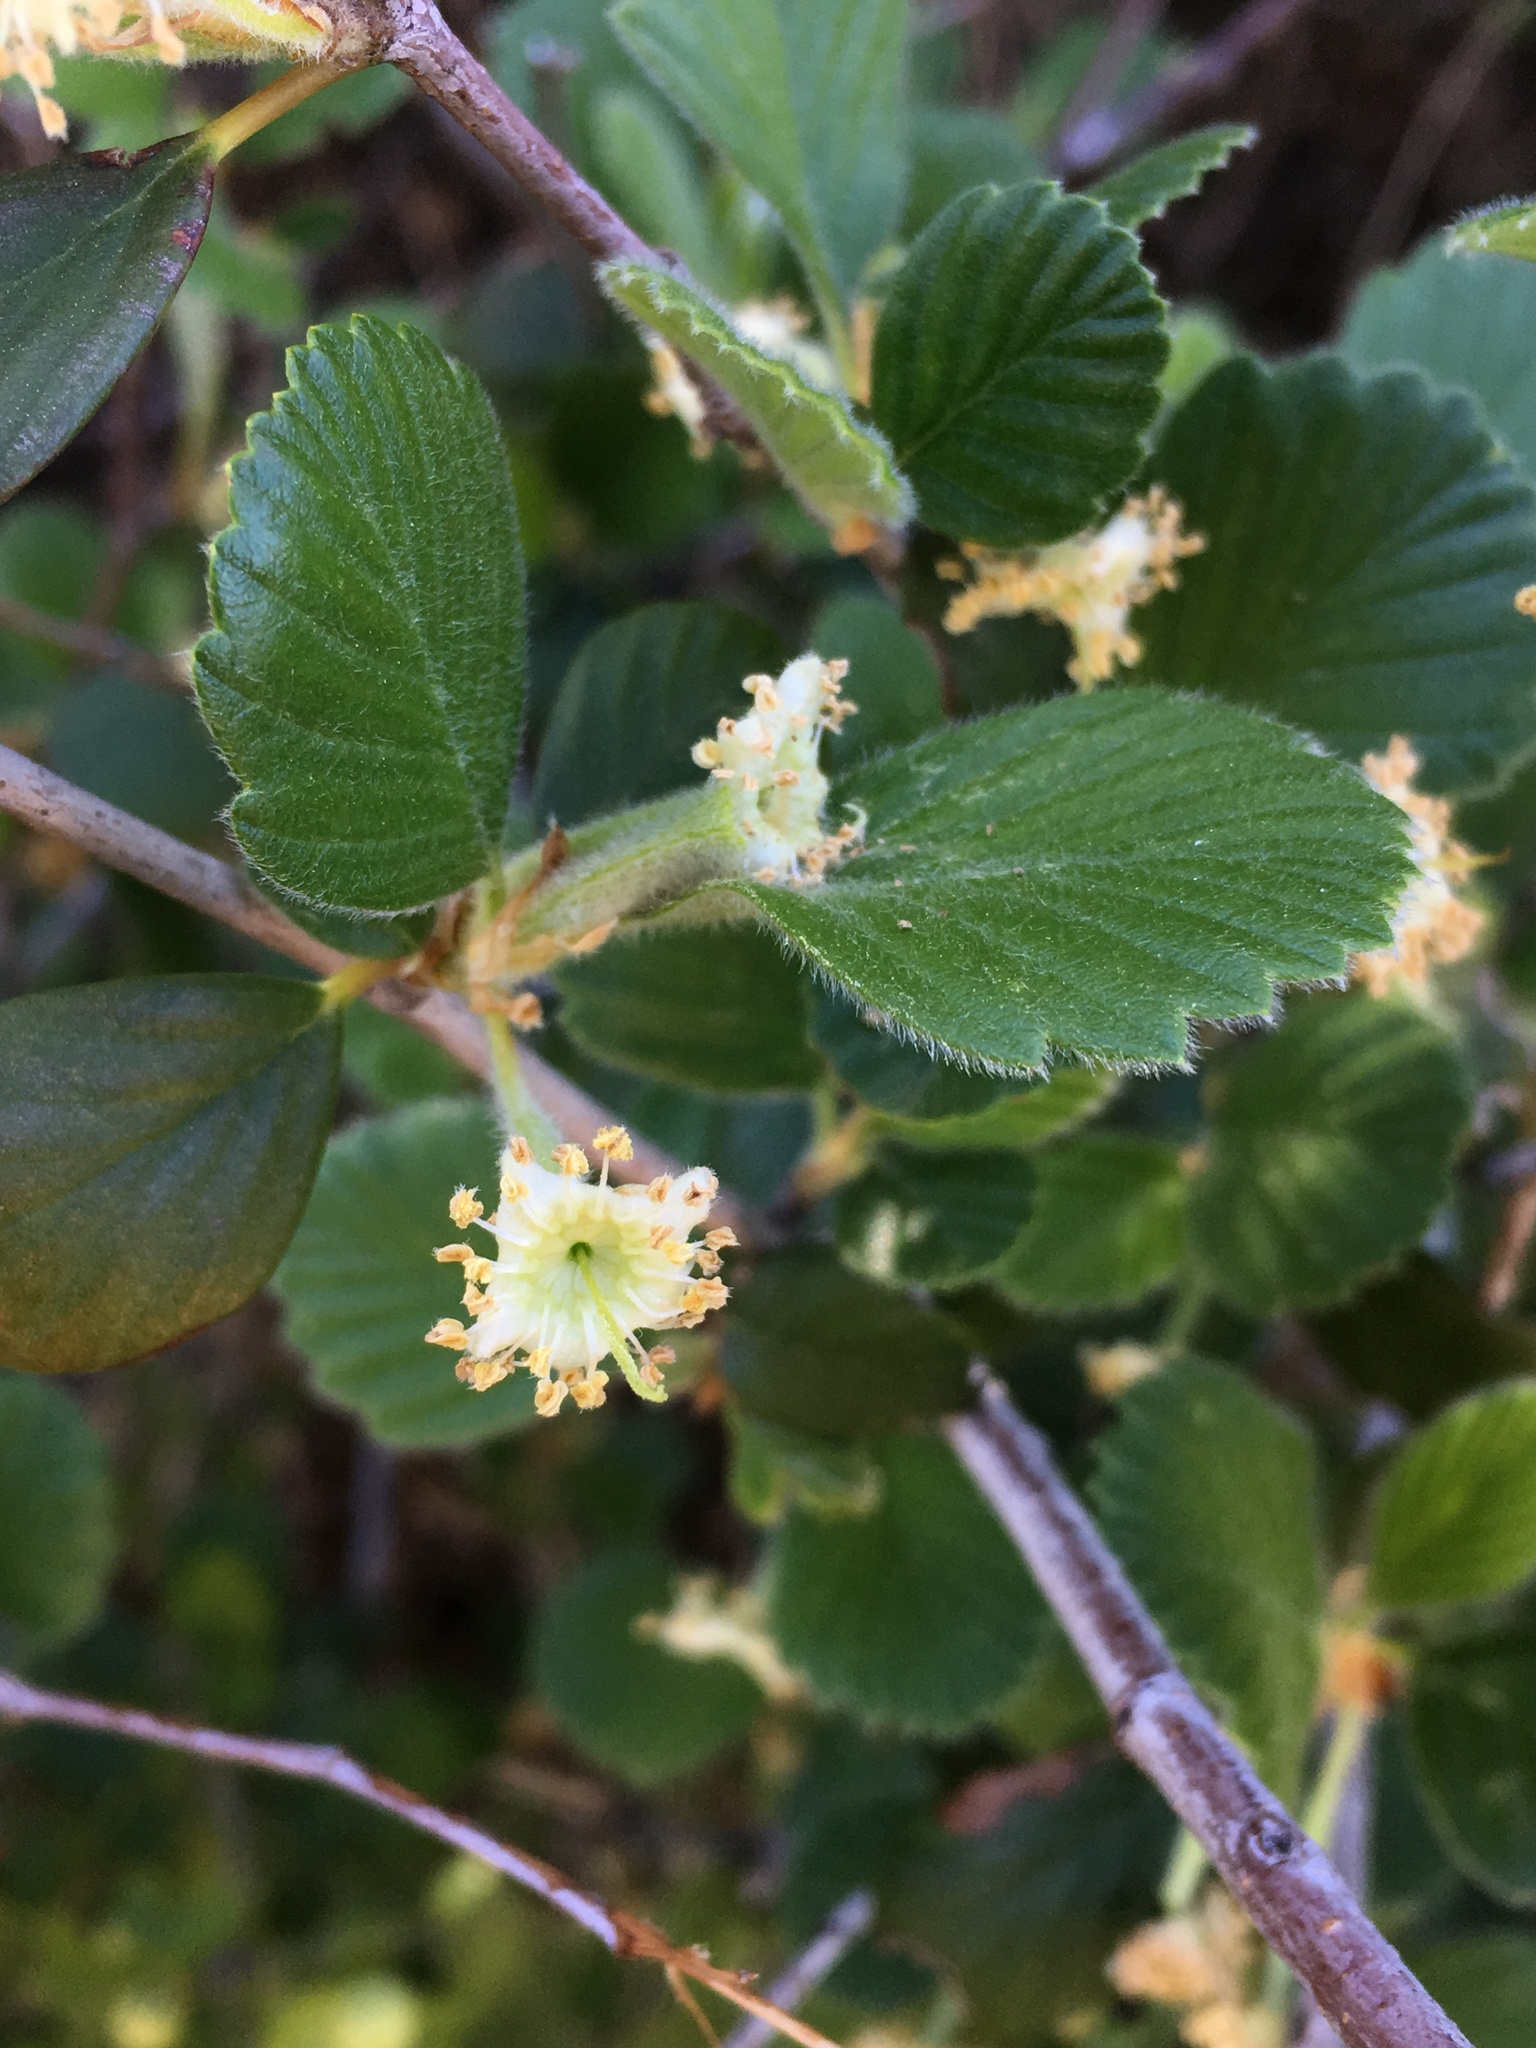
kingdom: Plantae
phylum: Tracheophyta
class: Magnoliopsida
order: Rosales
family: Rosaceae
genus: Cercocarpus
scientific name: Cercocarpus betuloides
